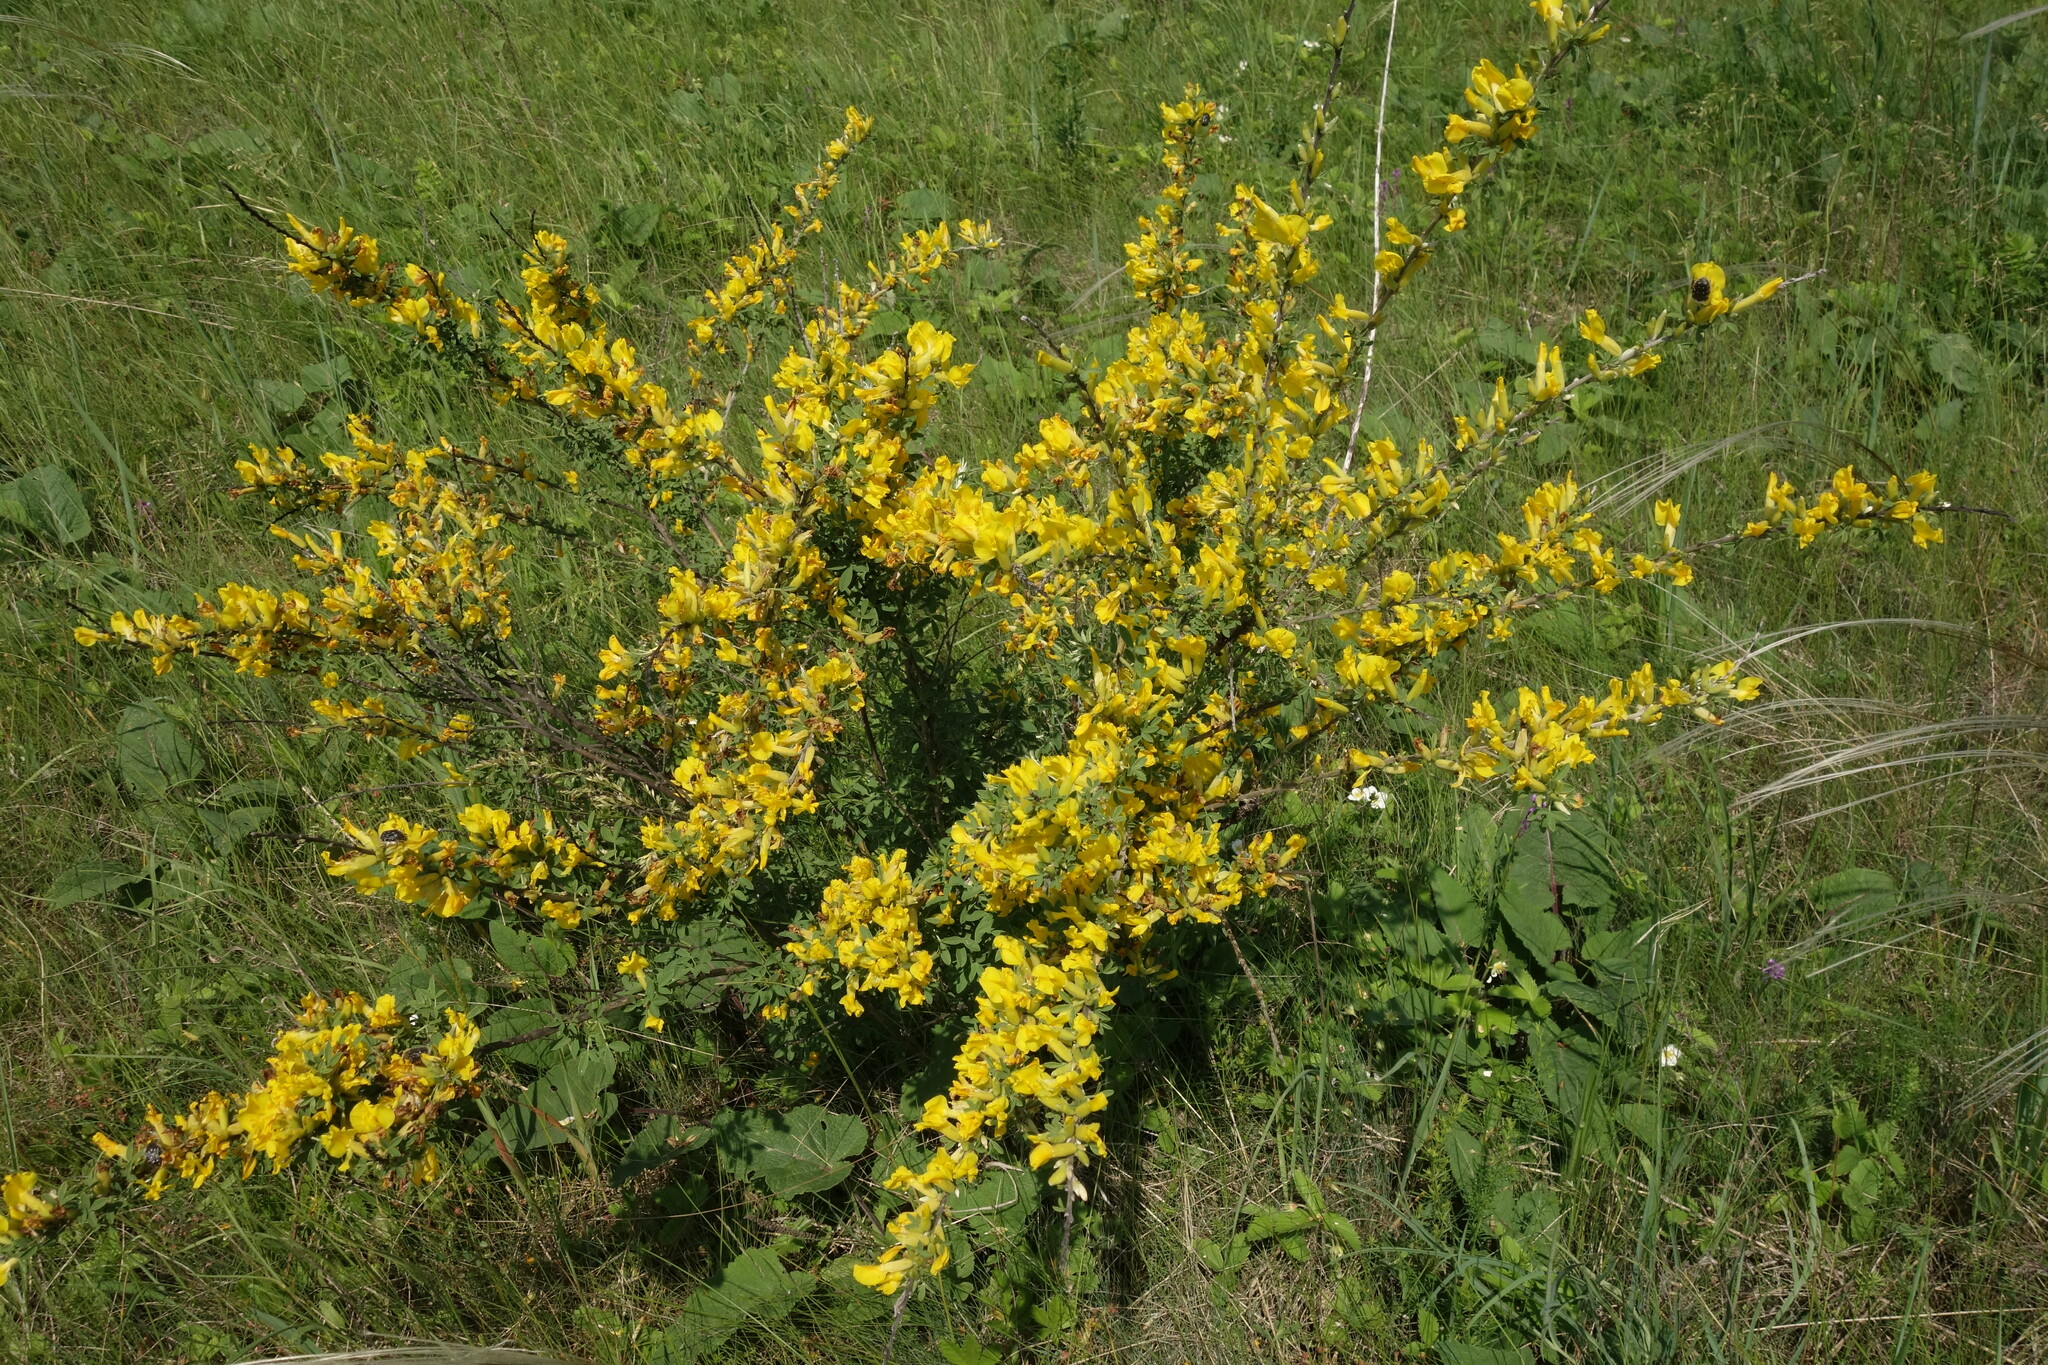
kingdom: Plantae
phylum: Tracheophyta
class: Magnoliopsida
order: Fabales
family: Fabaceae
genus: Chamaecytisus
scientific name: Chamaecytisus ruthenicus
